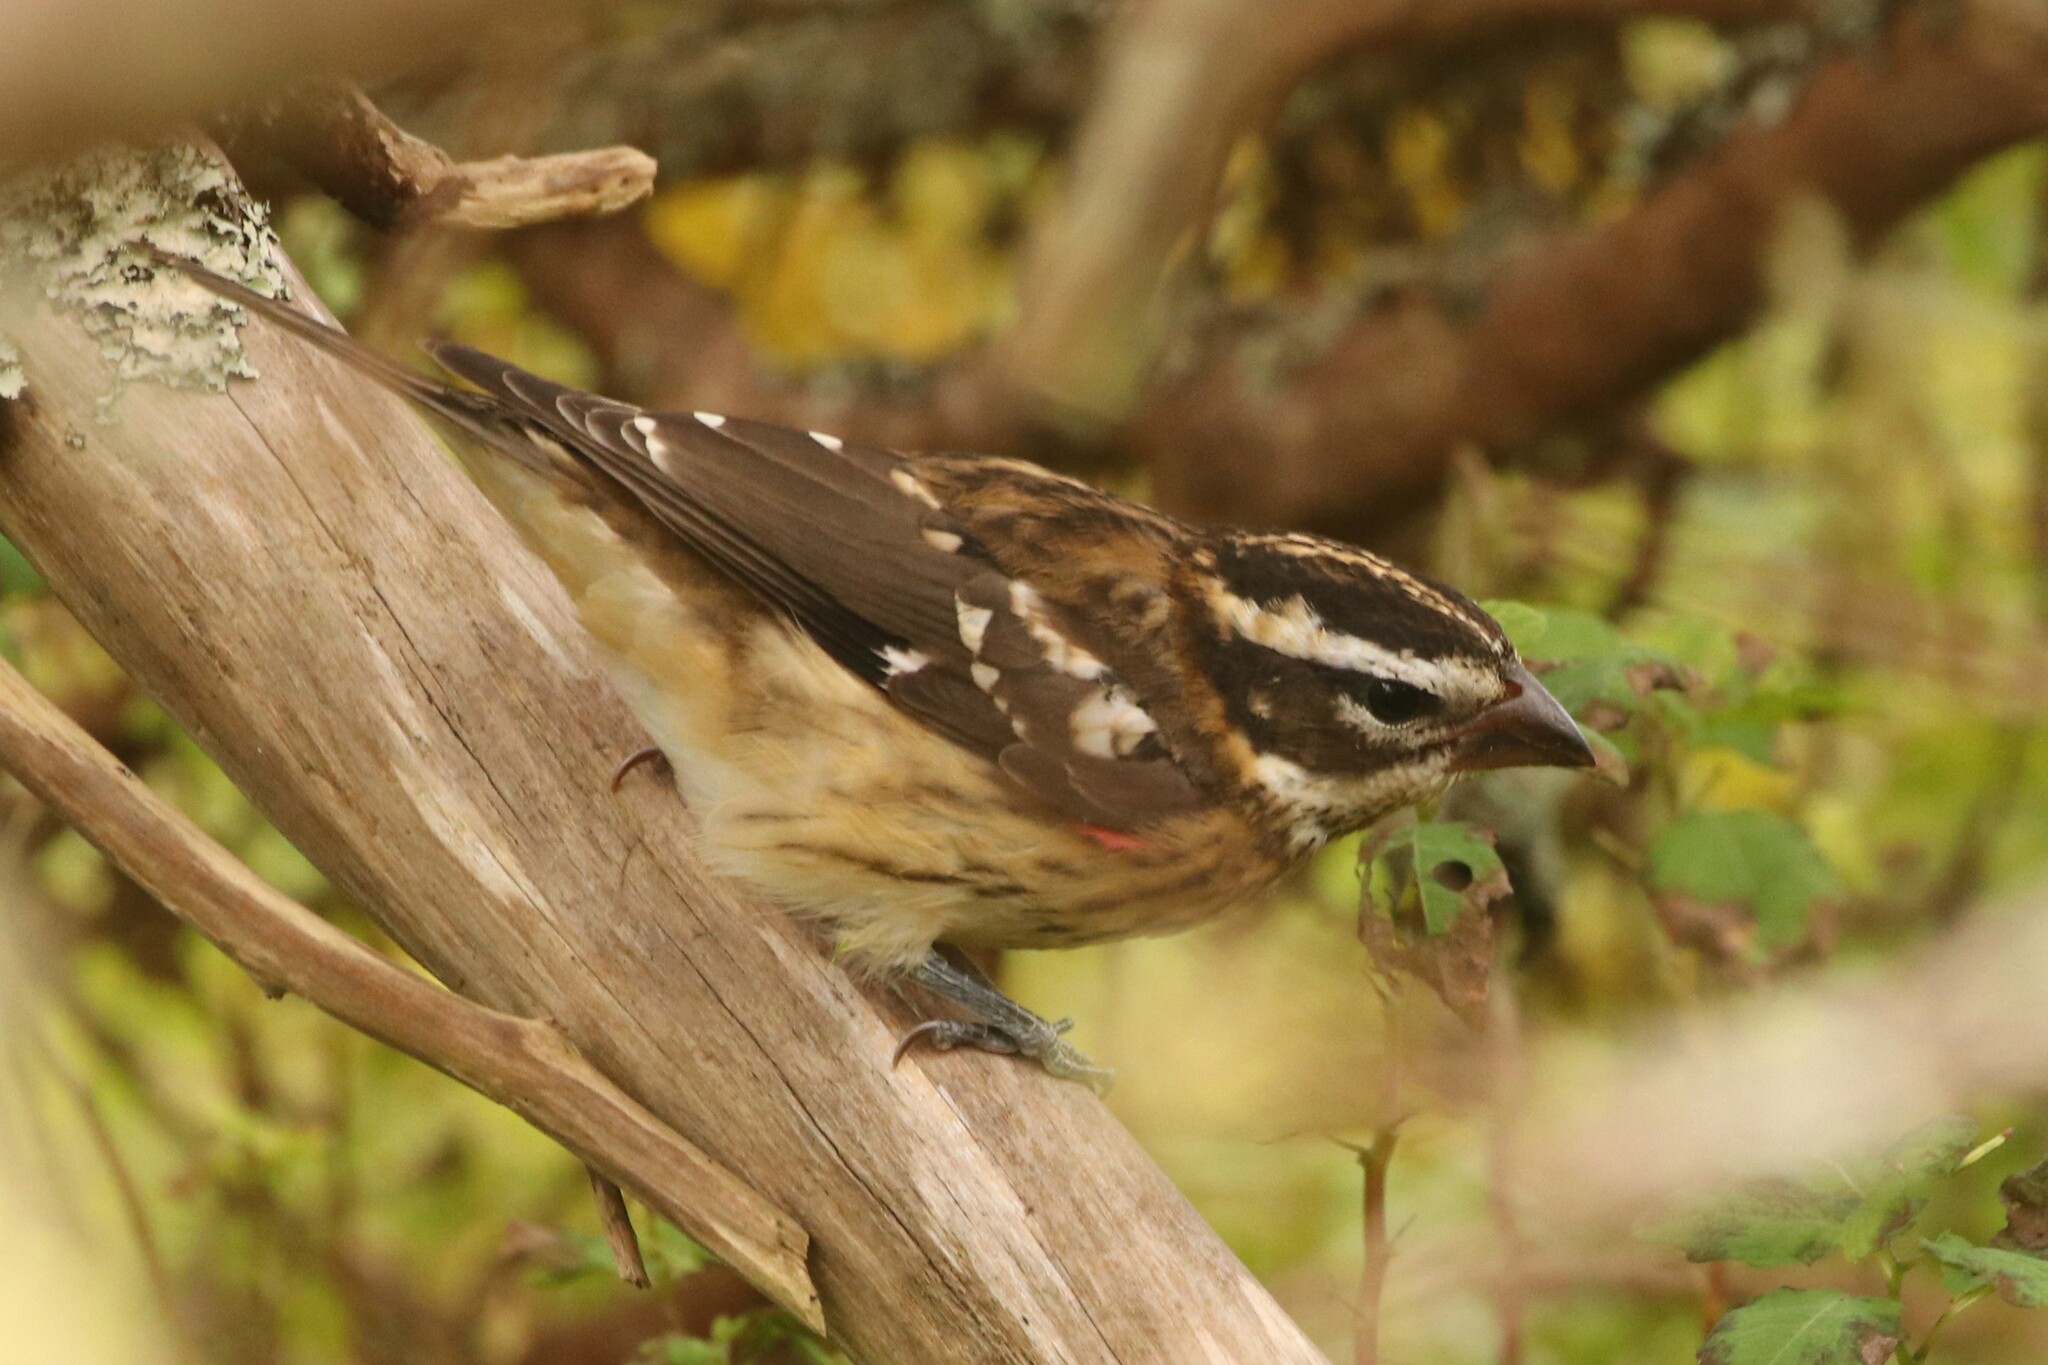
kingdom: Animalia
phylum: Chordata
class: Aves
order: Passeriformes
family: Cardinalidae
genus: Pheucticus
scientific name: Pheucticus ludovicianus
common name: Rose-breasted grosbeak
